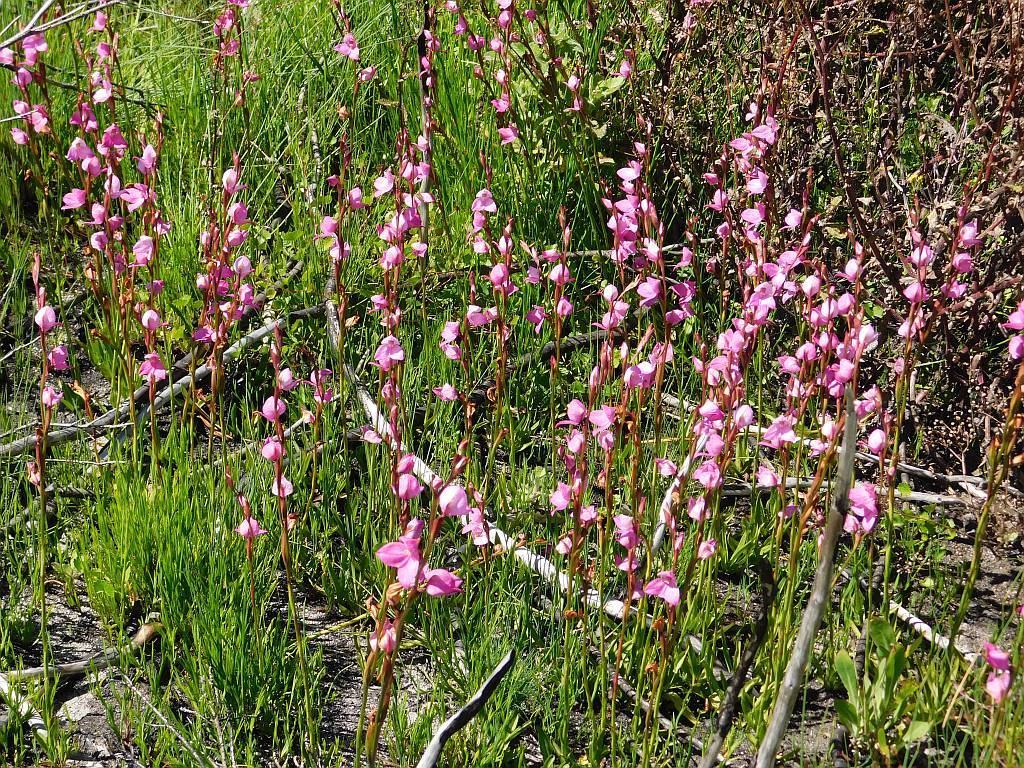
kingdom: Plantae
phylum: Tracheophyta
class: Liliopsida
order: Asparagales
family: Orchidaceae
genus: Disa
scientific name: Disa racemosa
